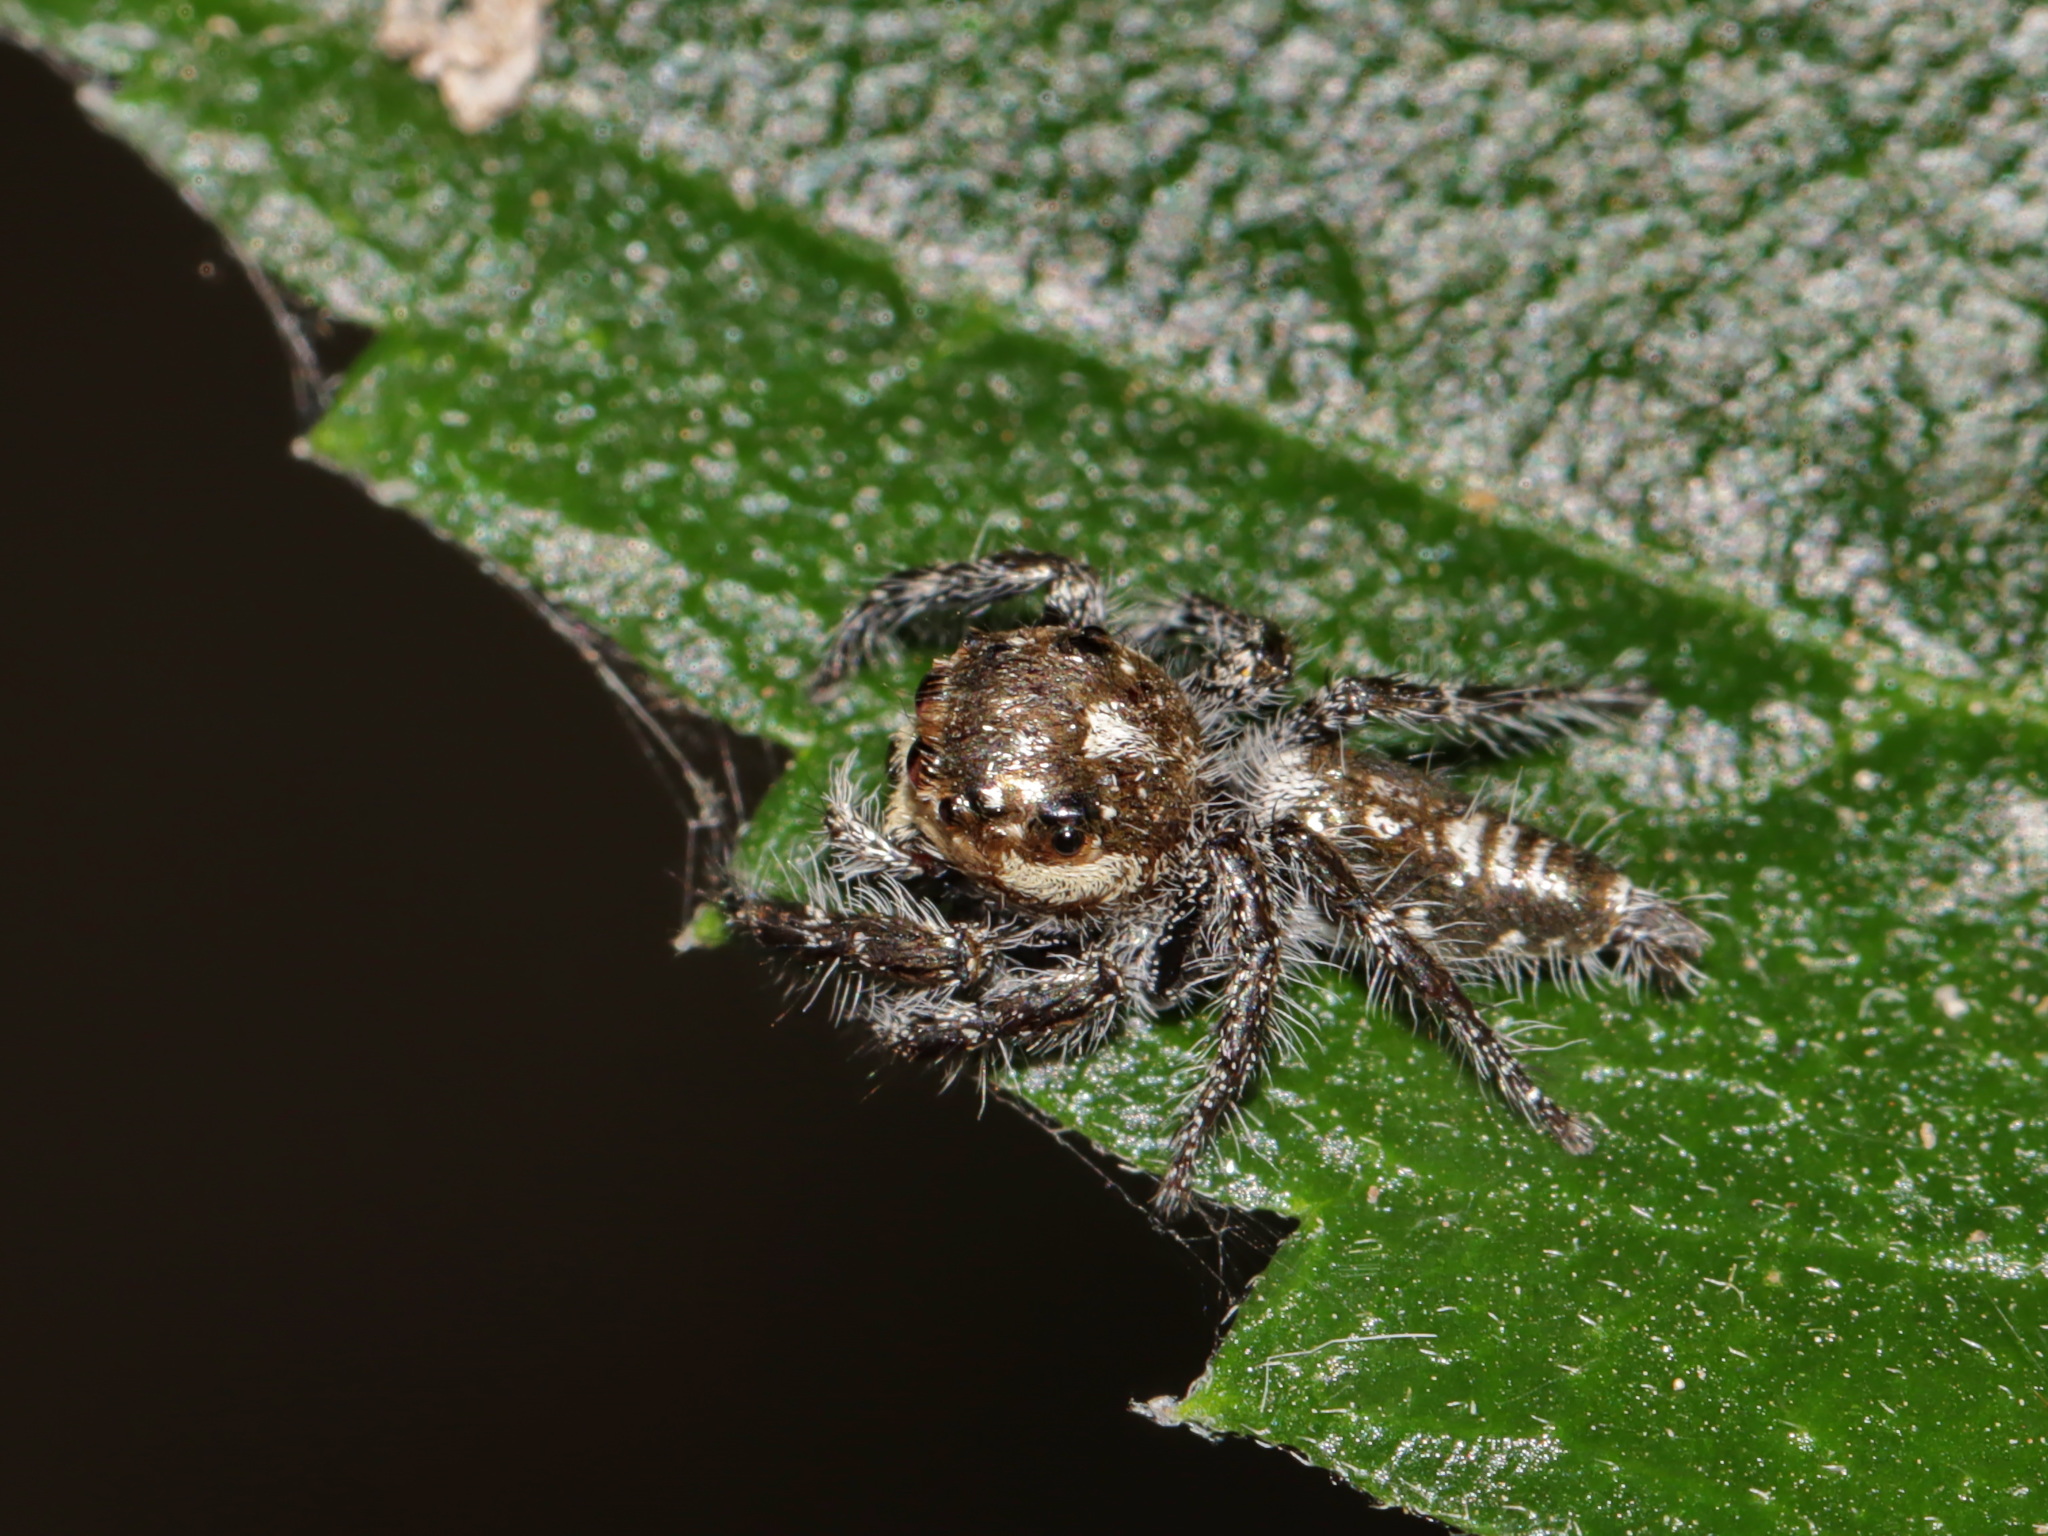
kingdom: Animalia
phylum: Arthropoda
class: Arachnida
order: Araneae
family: Salticidae
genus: Hyllus
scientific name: Hyllus semicupreus
